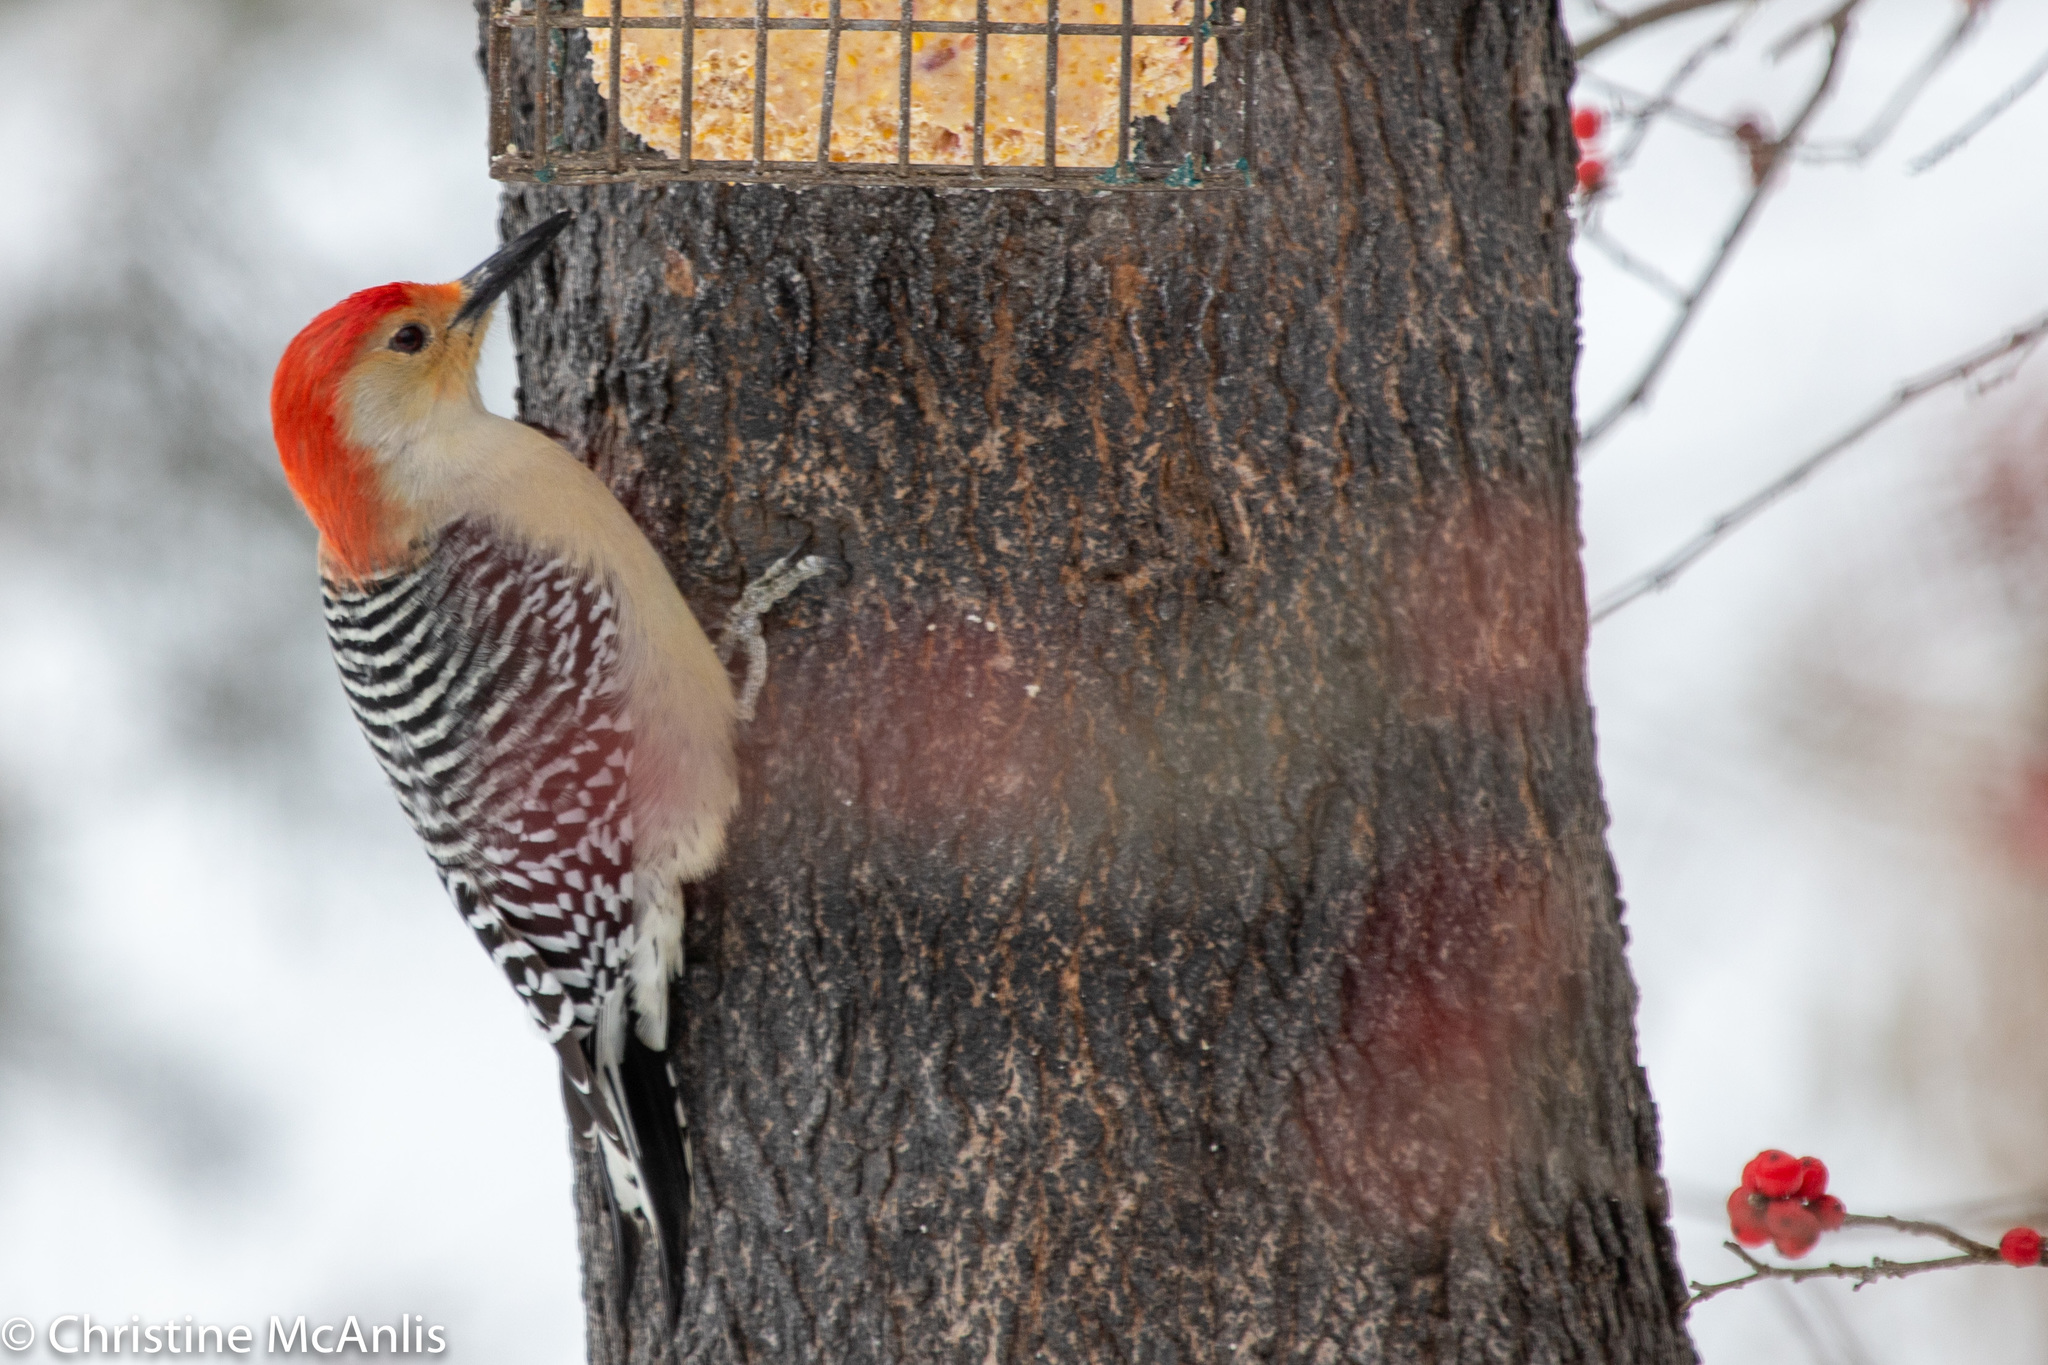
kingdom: Animalia
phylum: Chordata
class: Aves
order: Piciformes
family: Picidae
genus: Melanerpes
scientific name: Melanerpes carolinus
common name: Red-bellied woodpecker
